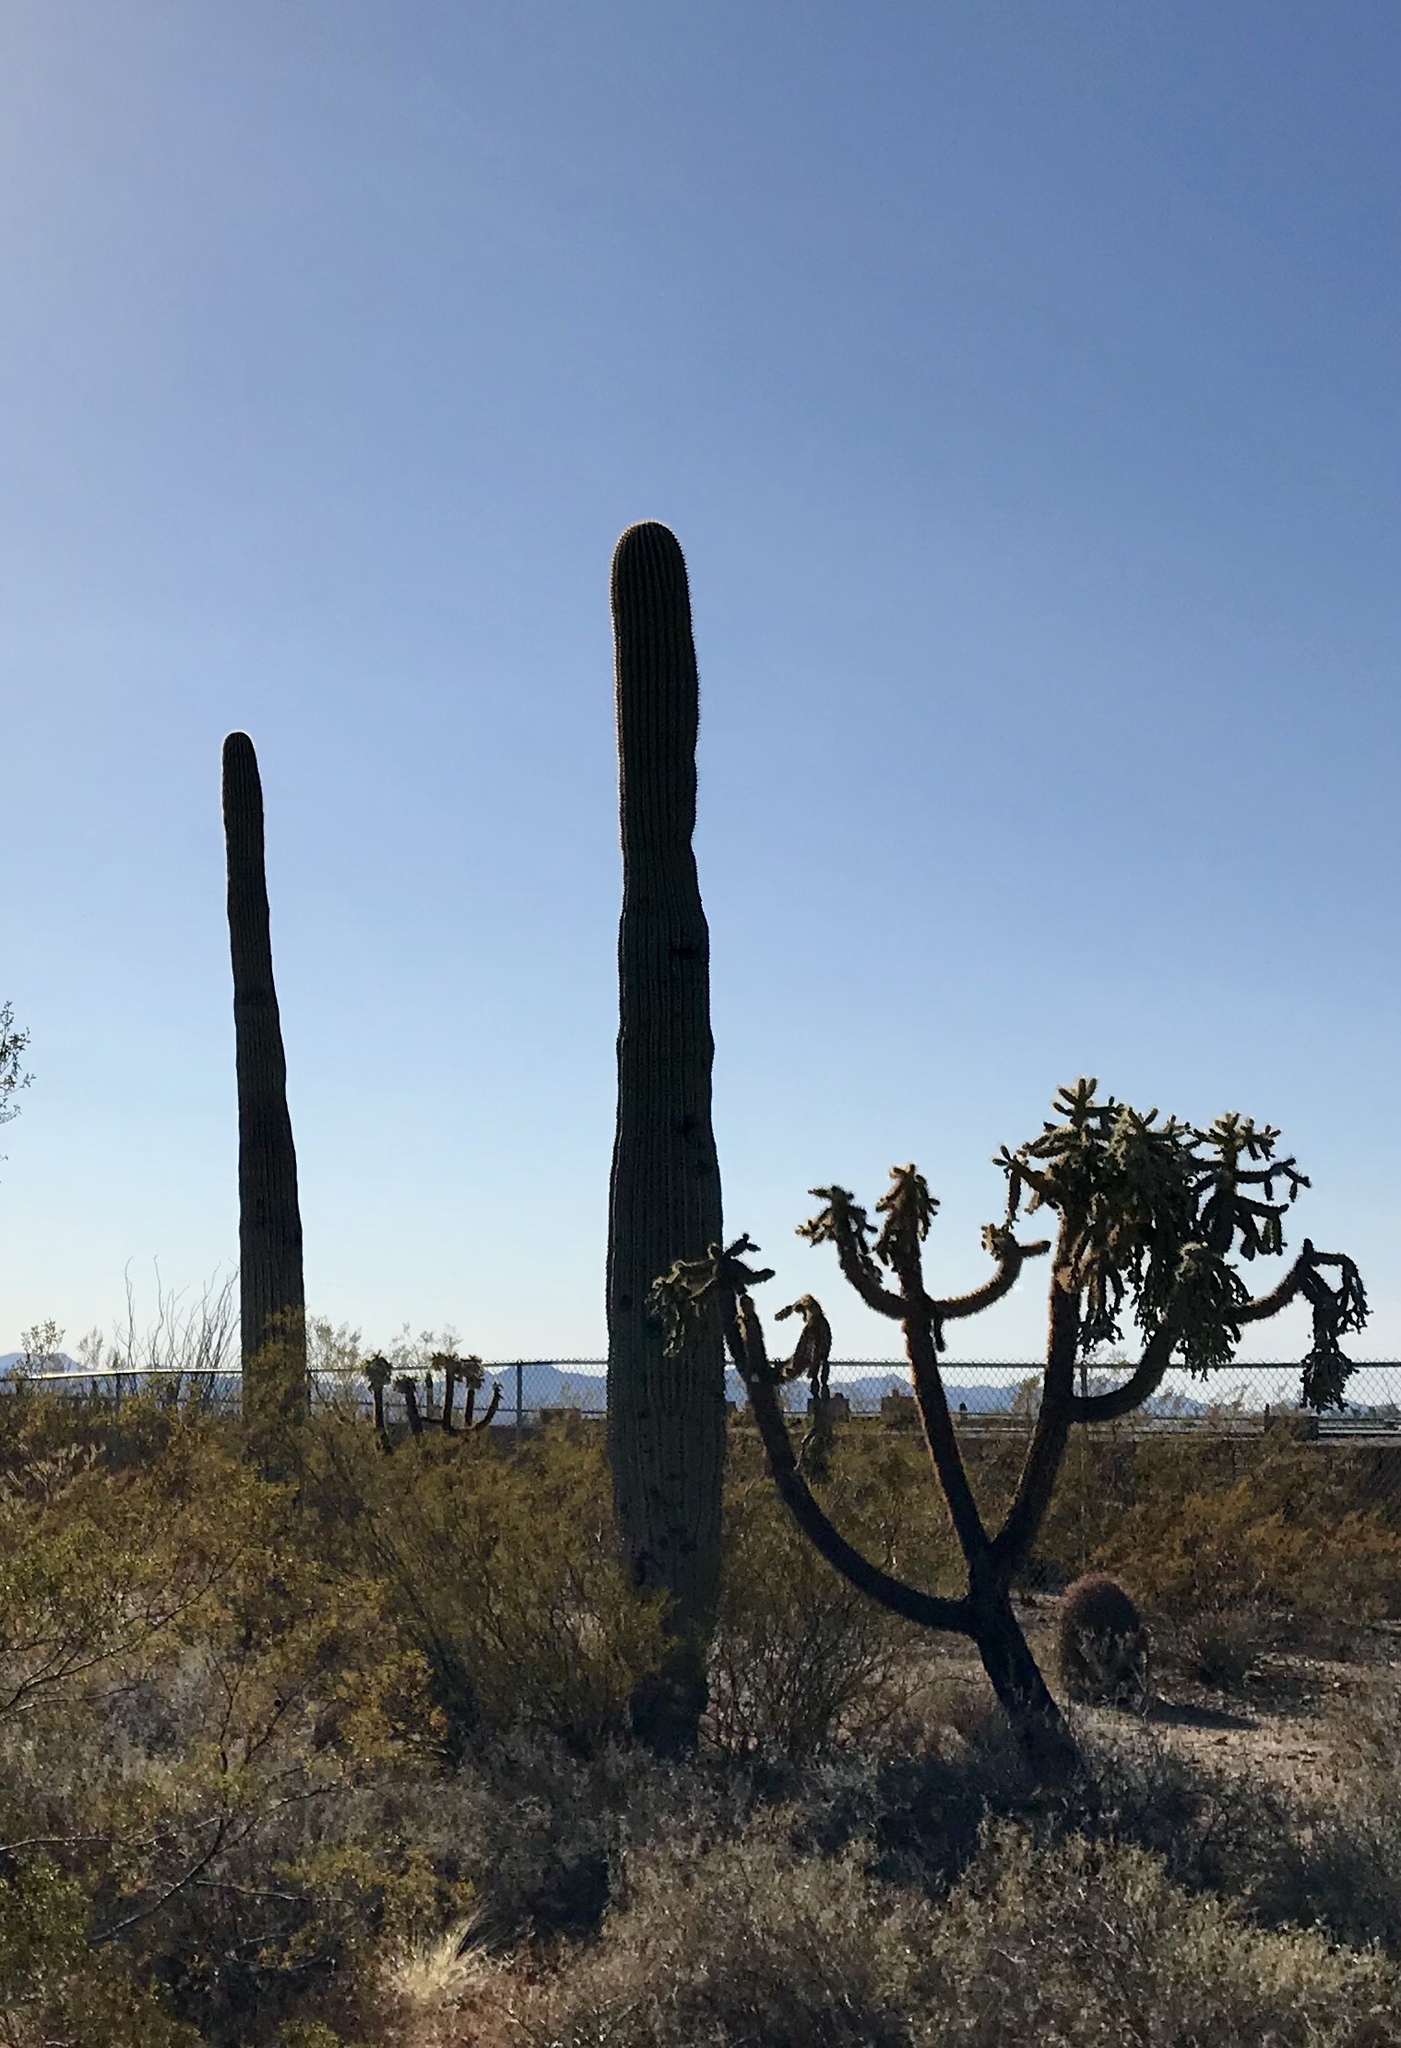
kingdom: Plantae
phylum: Tracheophyta
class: Magnoliopsida
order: Caryophyllales
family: Cactaceae
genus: Carnegiea
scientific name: Carnegiea gigantea
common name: Saguaro
